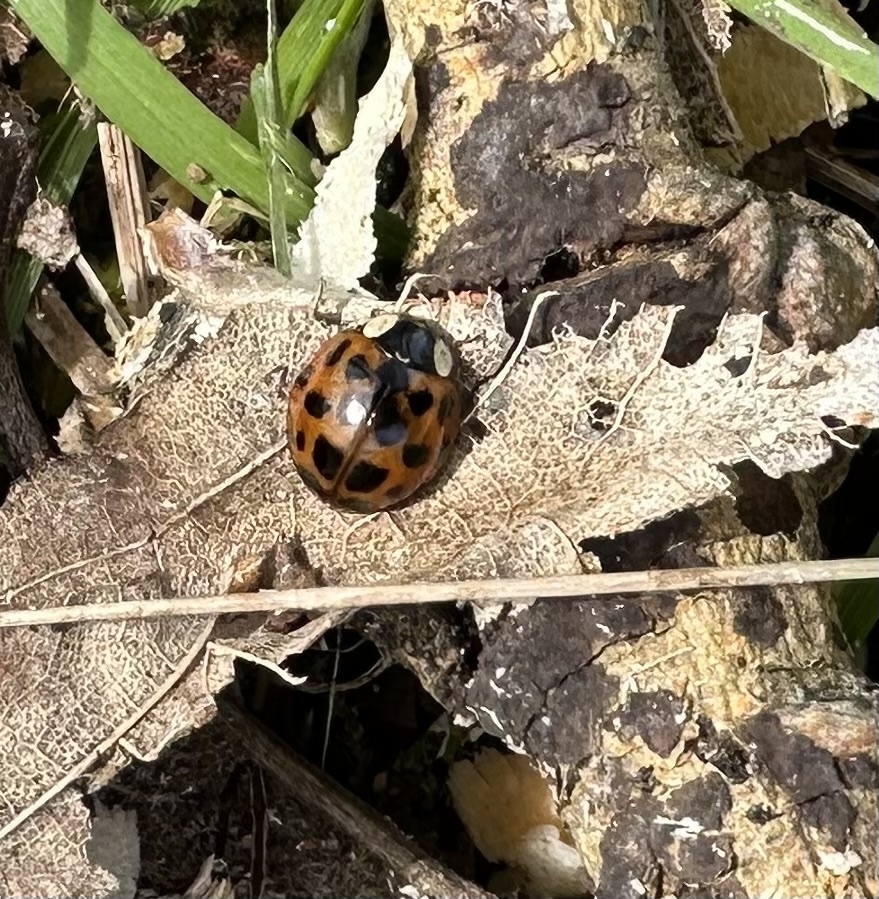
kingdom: Animalia
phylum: Arthropoda
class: Insecta
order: Coleoptera
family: Coccinellidae
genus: Harmonia
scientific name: Harmonia axyridis
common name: Harlequin ladybird
